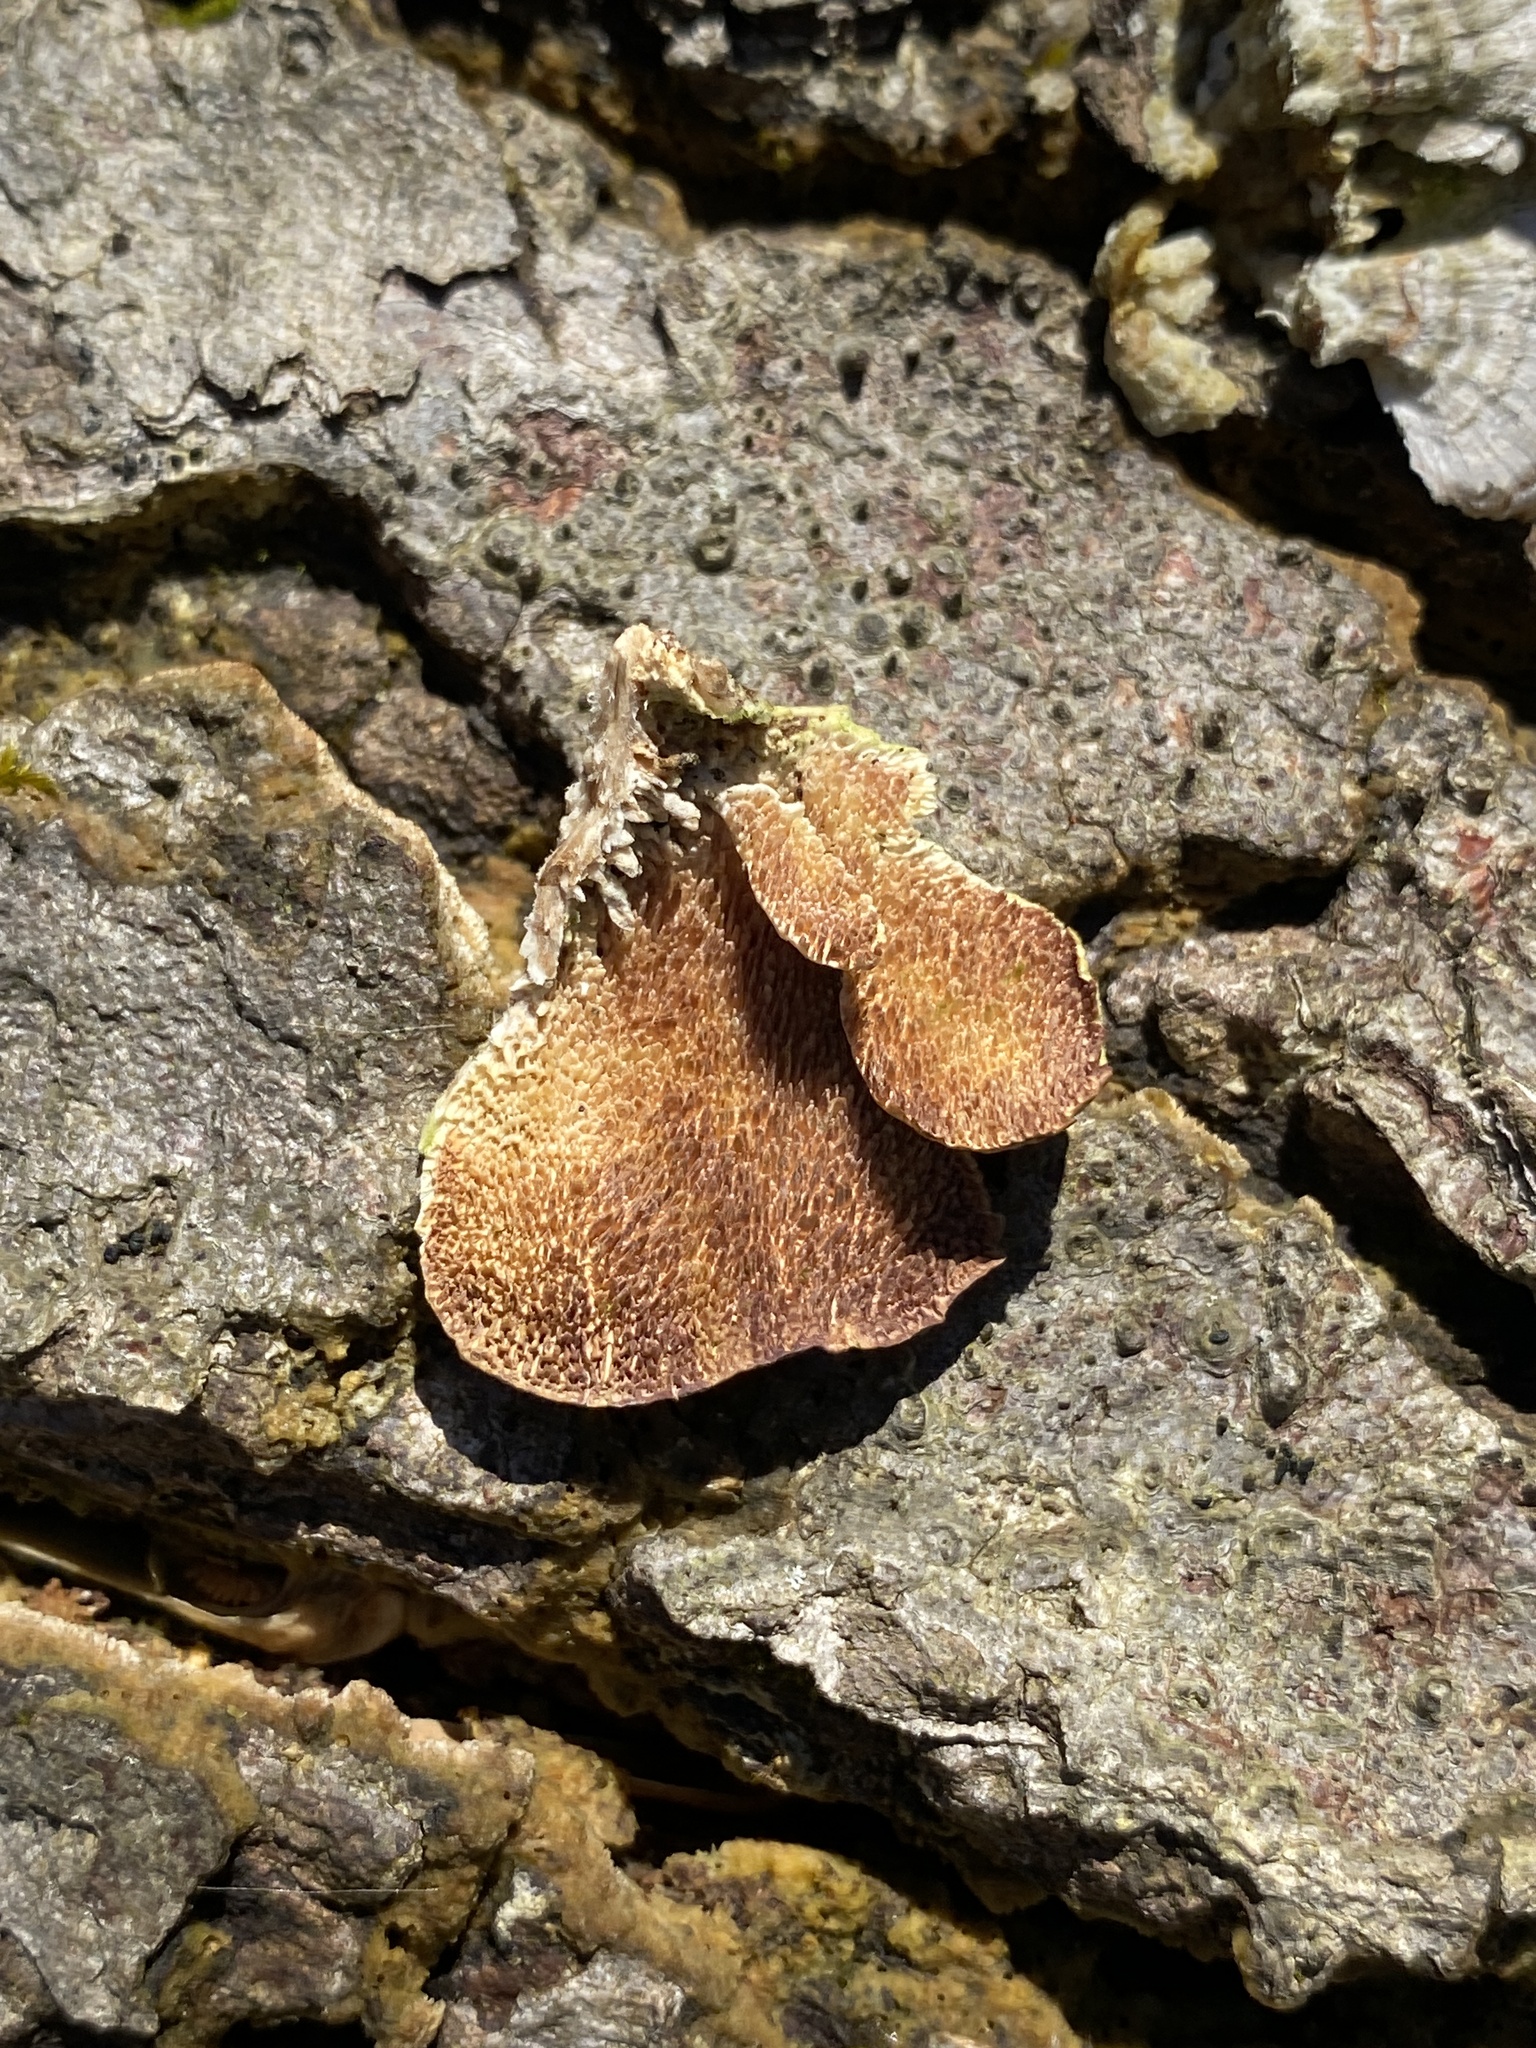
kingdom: Fungi
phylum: Basidiomycota
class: Agaricomycetes
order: Hymenochaetales
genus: Trichaptum
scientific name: Trichaptum biforme
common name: Violet-toothed polypore
